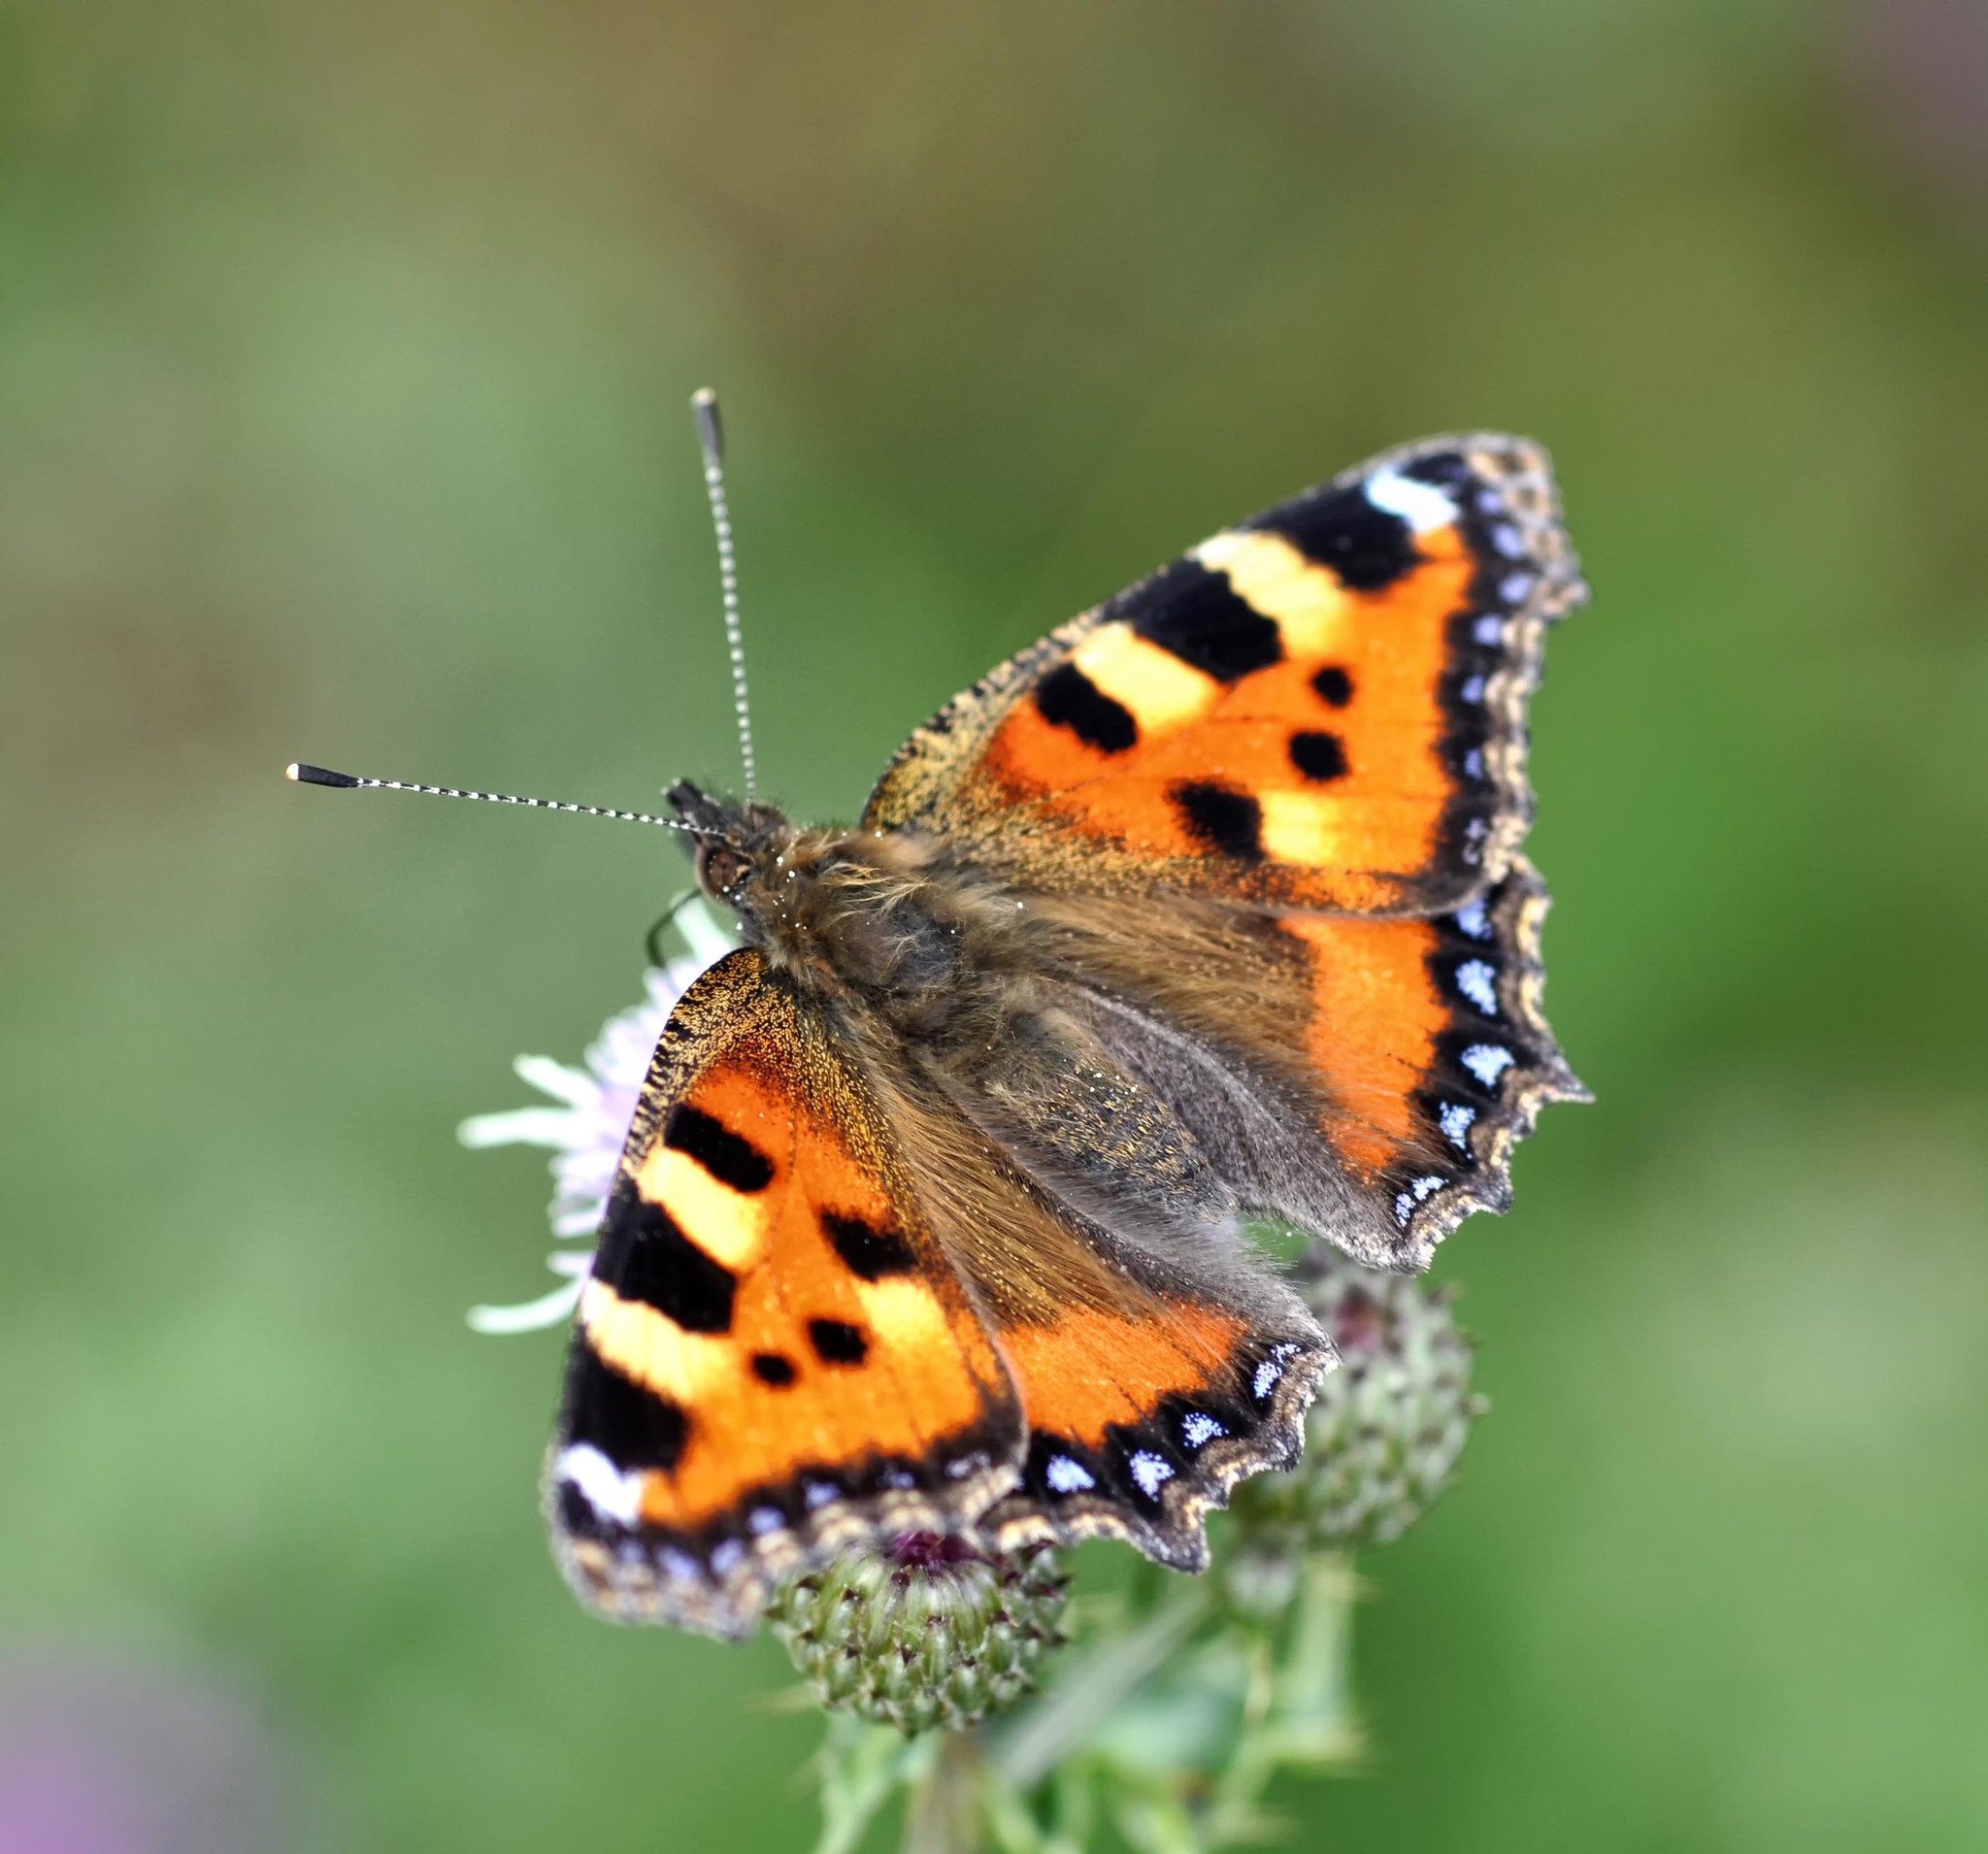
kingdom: Animalia
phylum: Arthropoda
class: Insecta
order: Lepidoptera
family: Nymphalidae
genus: Aglais
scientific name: Aglais urticae
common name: Small tortoiseshell
